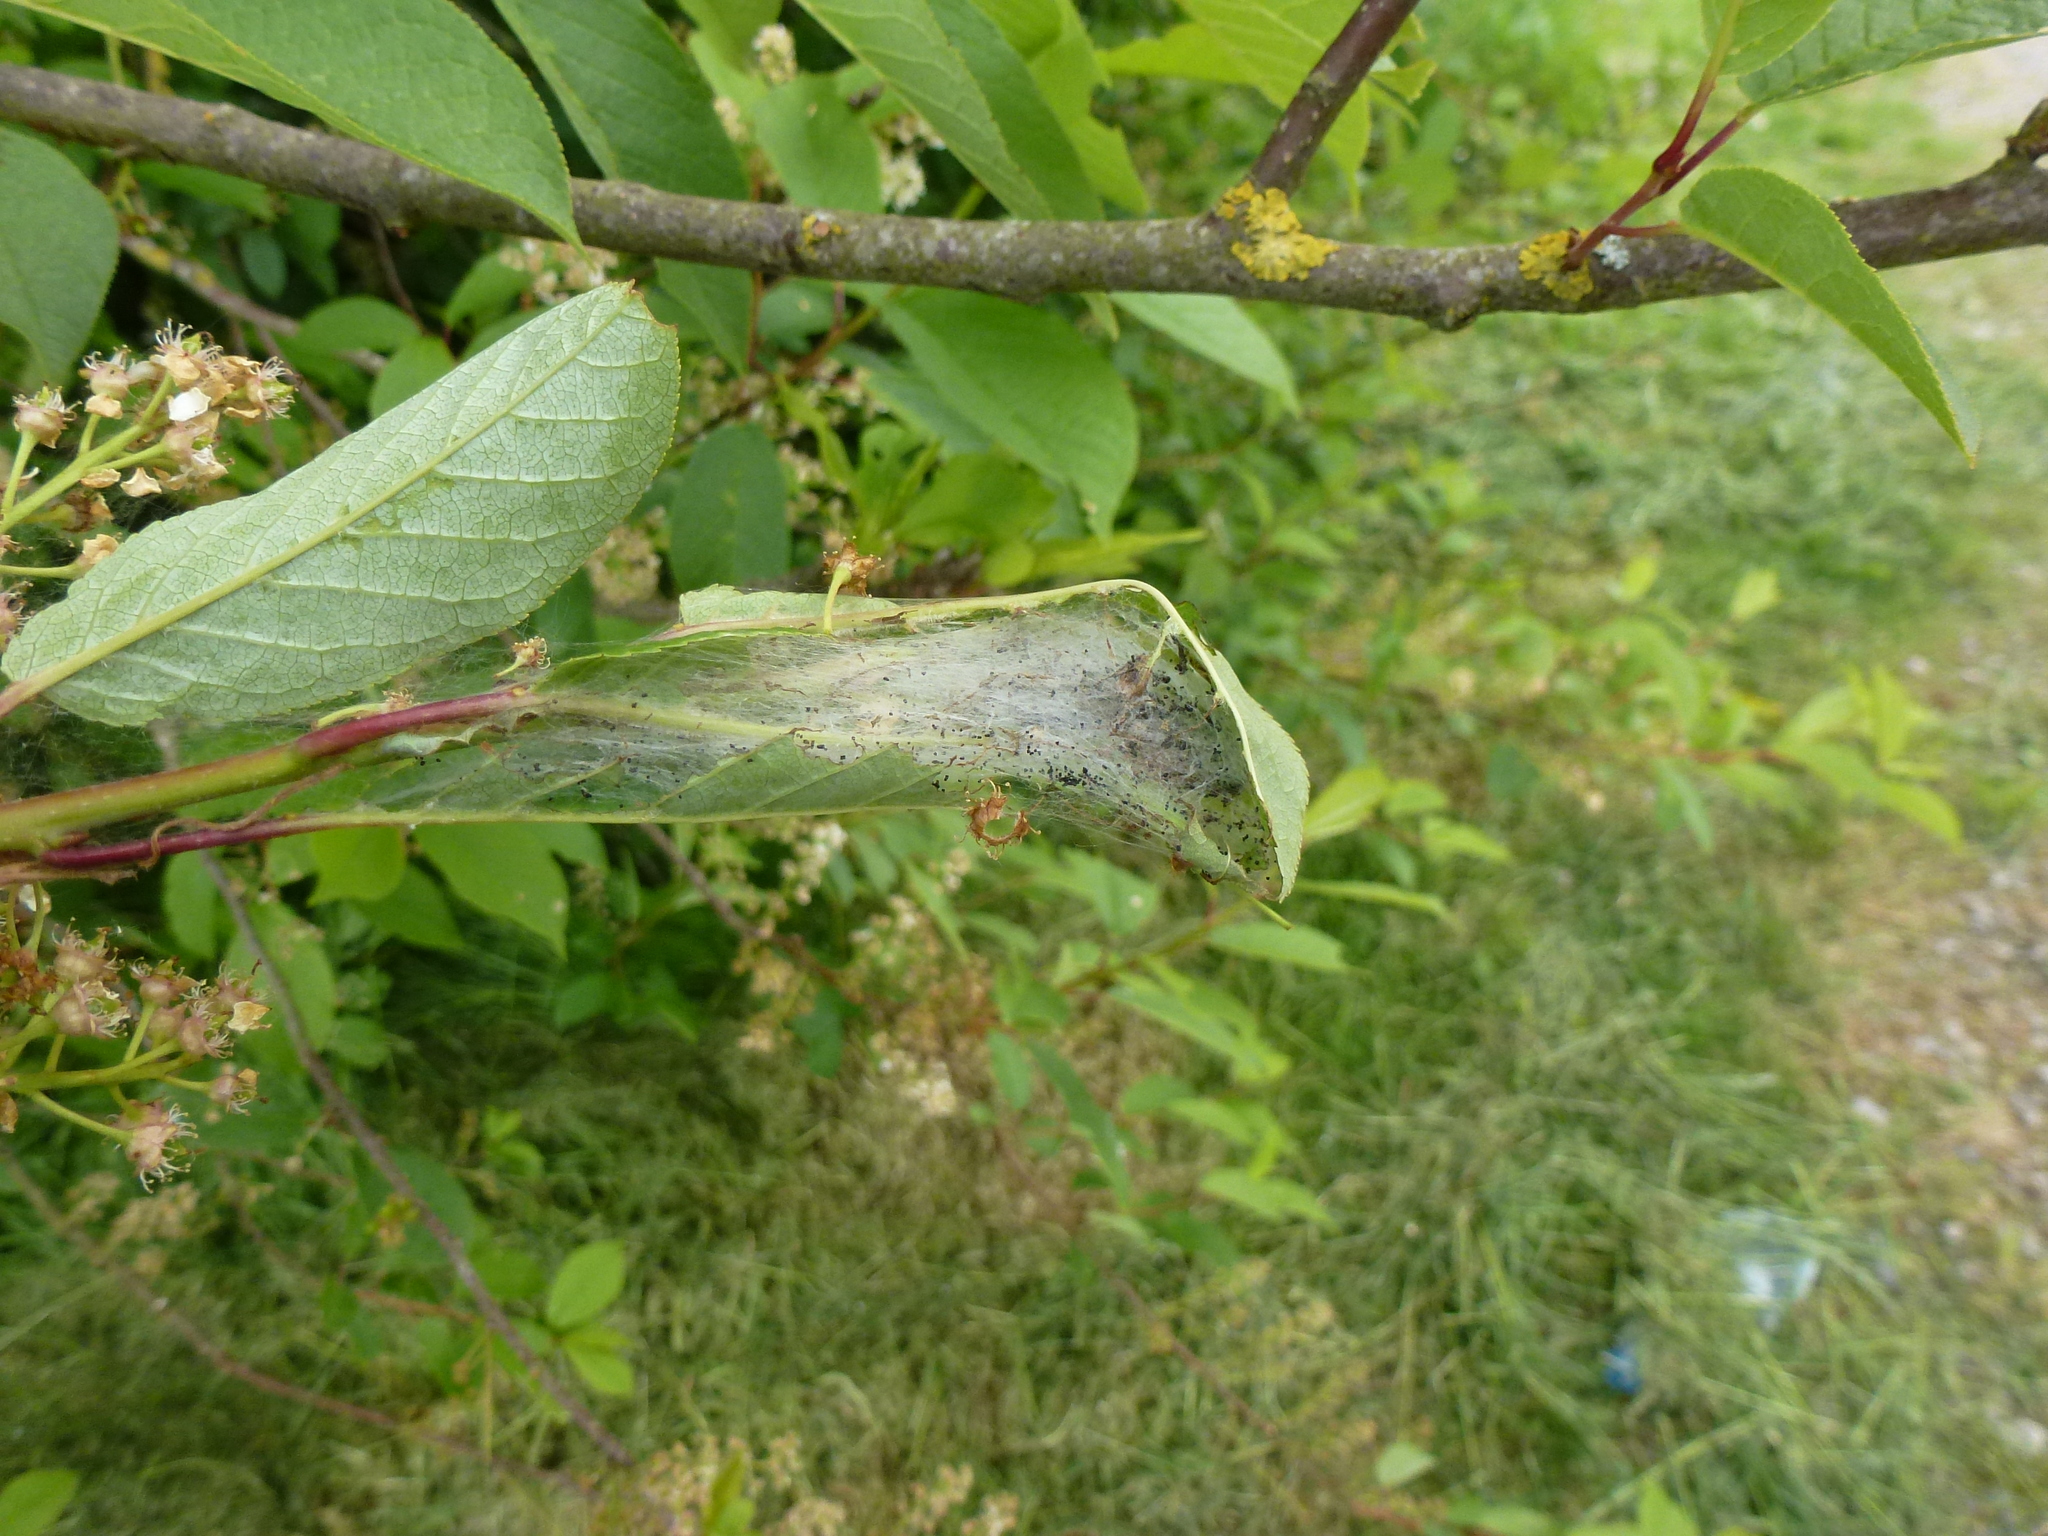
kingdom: Animalia
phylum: Arthropoda
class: Insecta
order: Lepidoptera
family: Yponomeutidae
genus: Yponomeuta
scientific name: Yponomeuta evonymella
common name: Bird-cherry ermine
